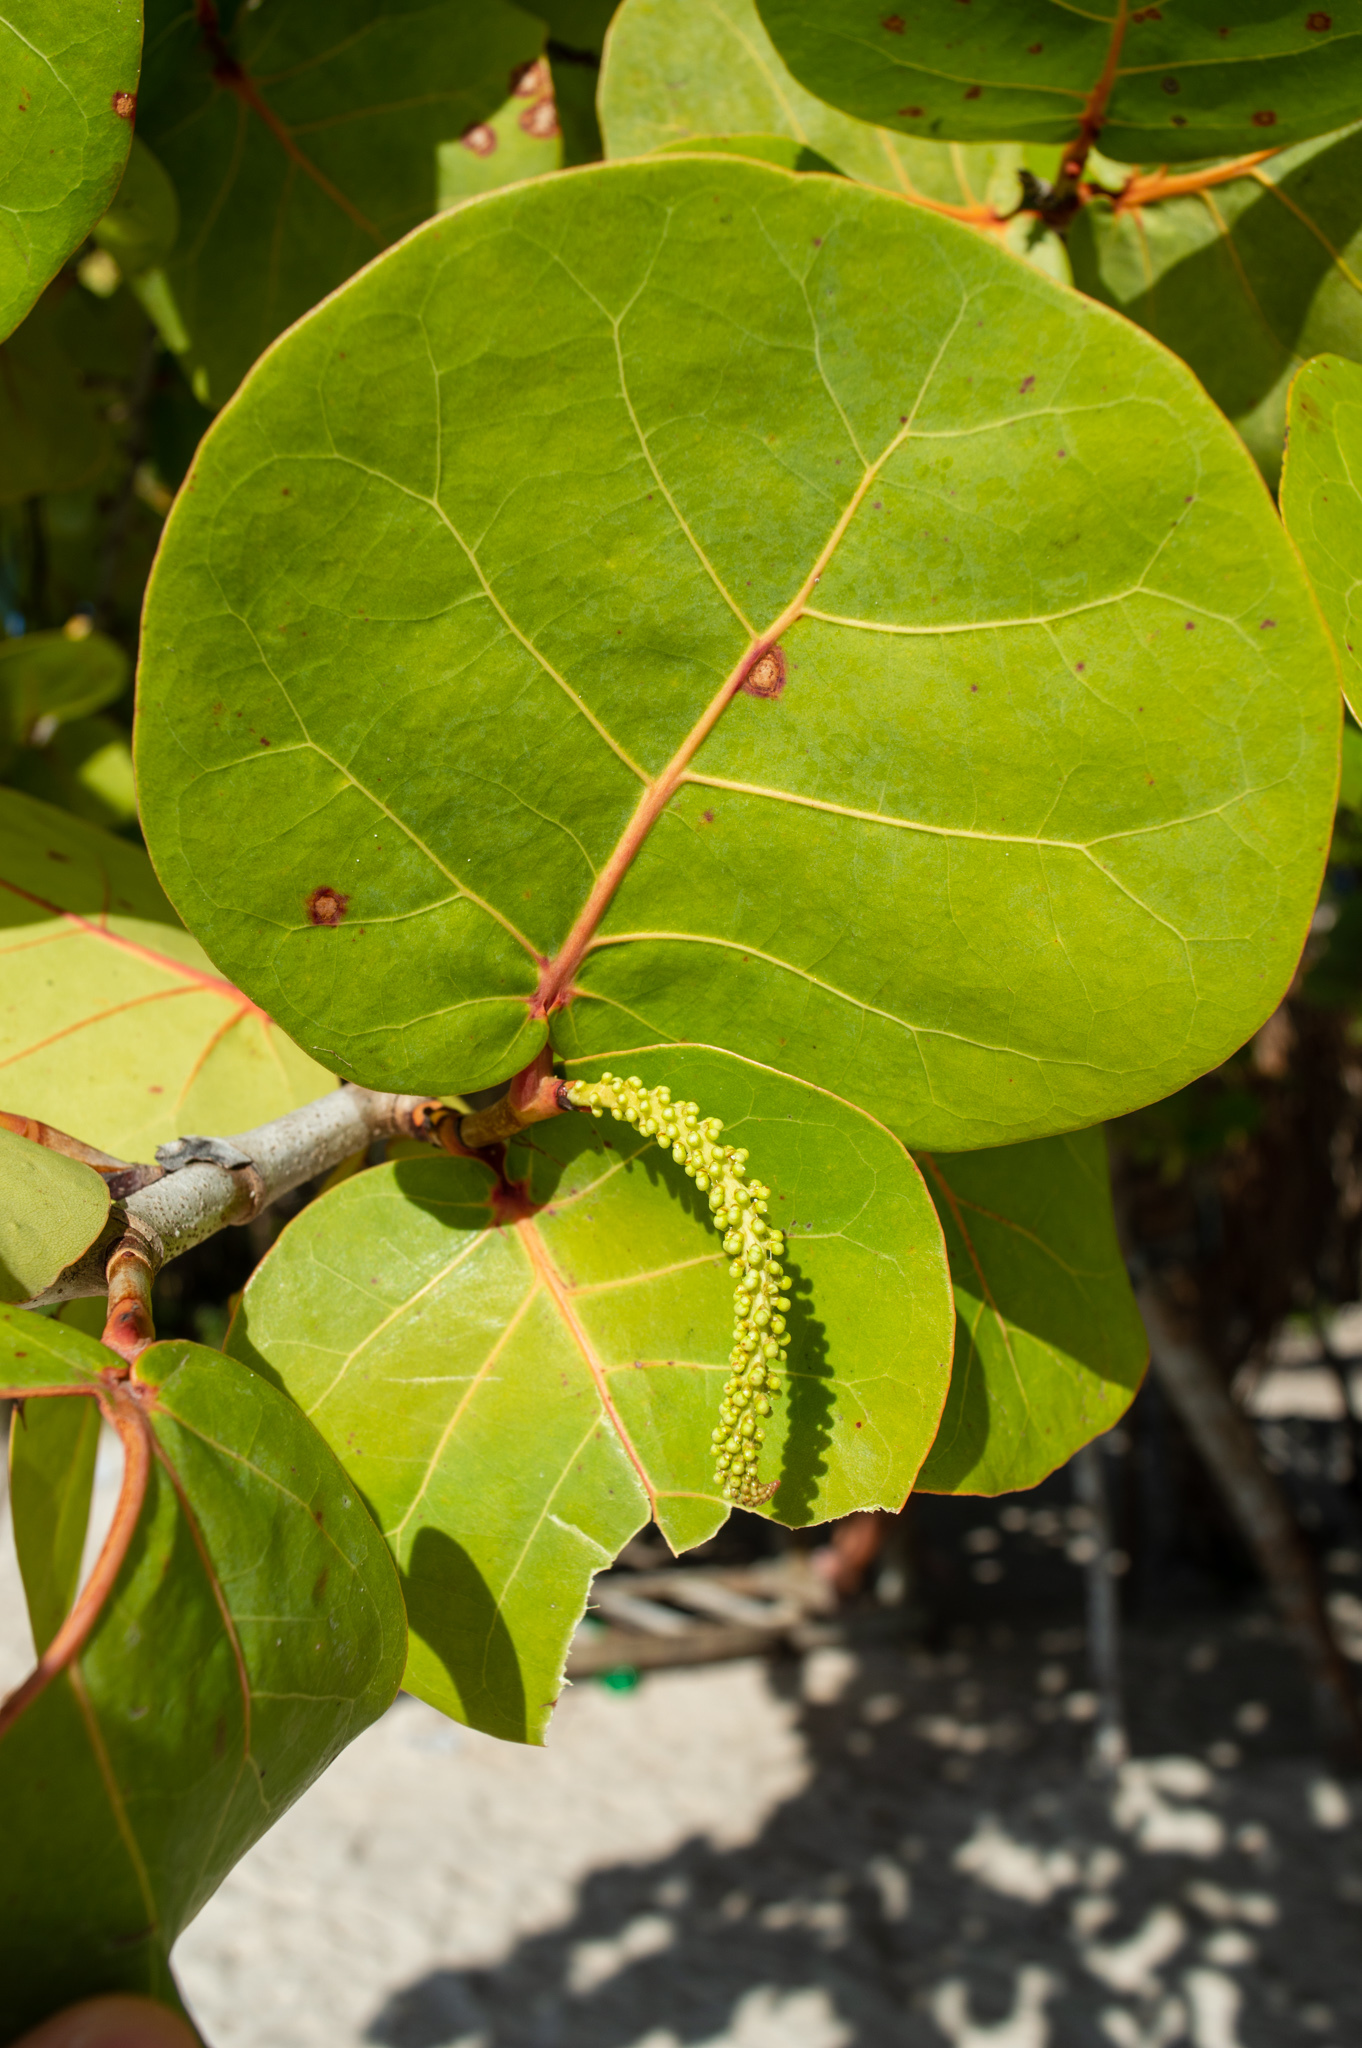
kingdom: Plantae
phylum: Tracheophyta
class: Magnoliopsida
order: Caryophyllales
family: Polygonaceae
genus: Coccoloba
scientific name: Coccoloba uvifera
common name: Seagrape
